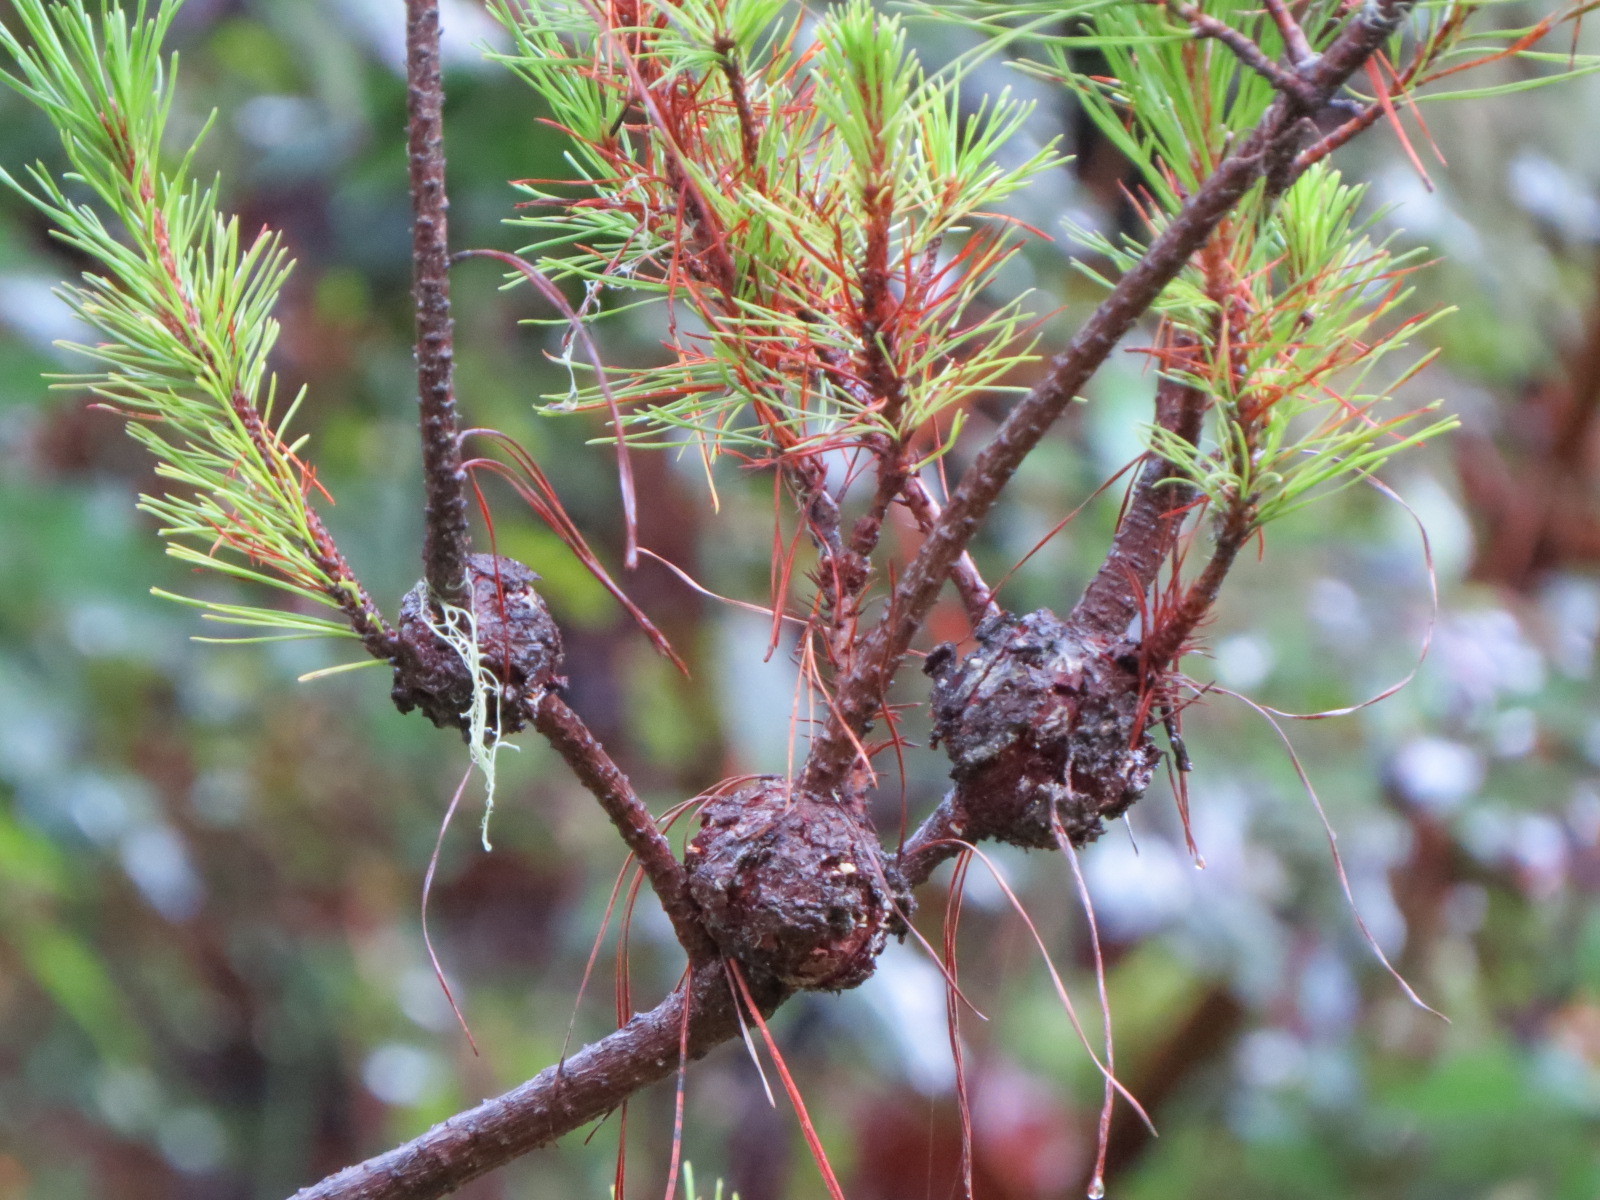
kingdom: Fungi
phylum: Basidiomycota
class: Pucciniomycetes
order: Pucciniales
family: Cronartiaceae
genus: Cronartium
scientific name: Cronartium harknessii
